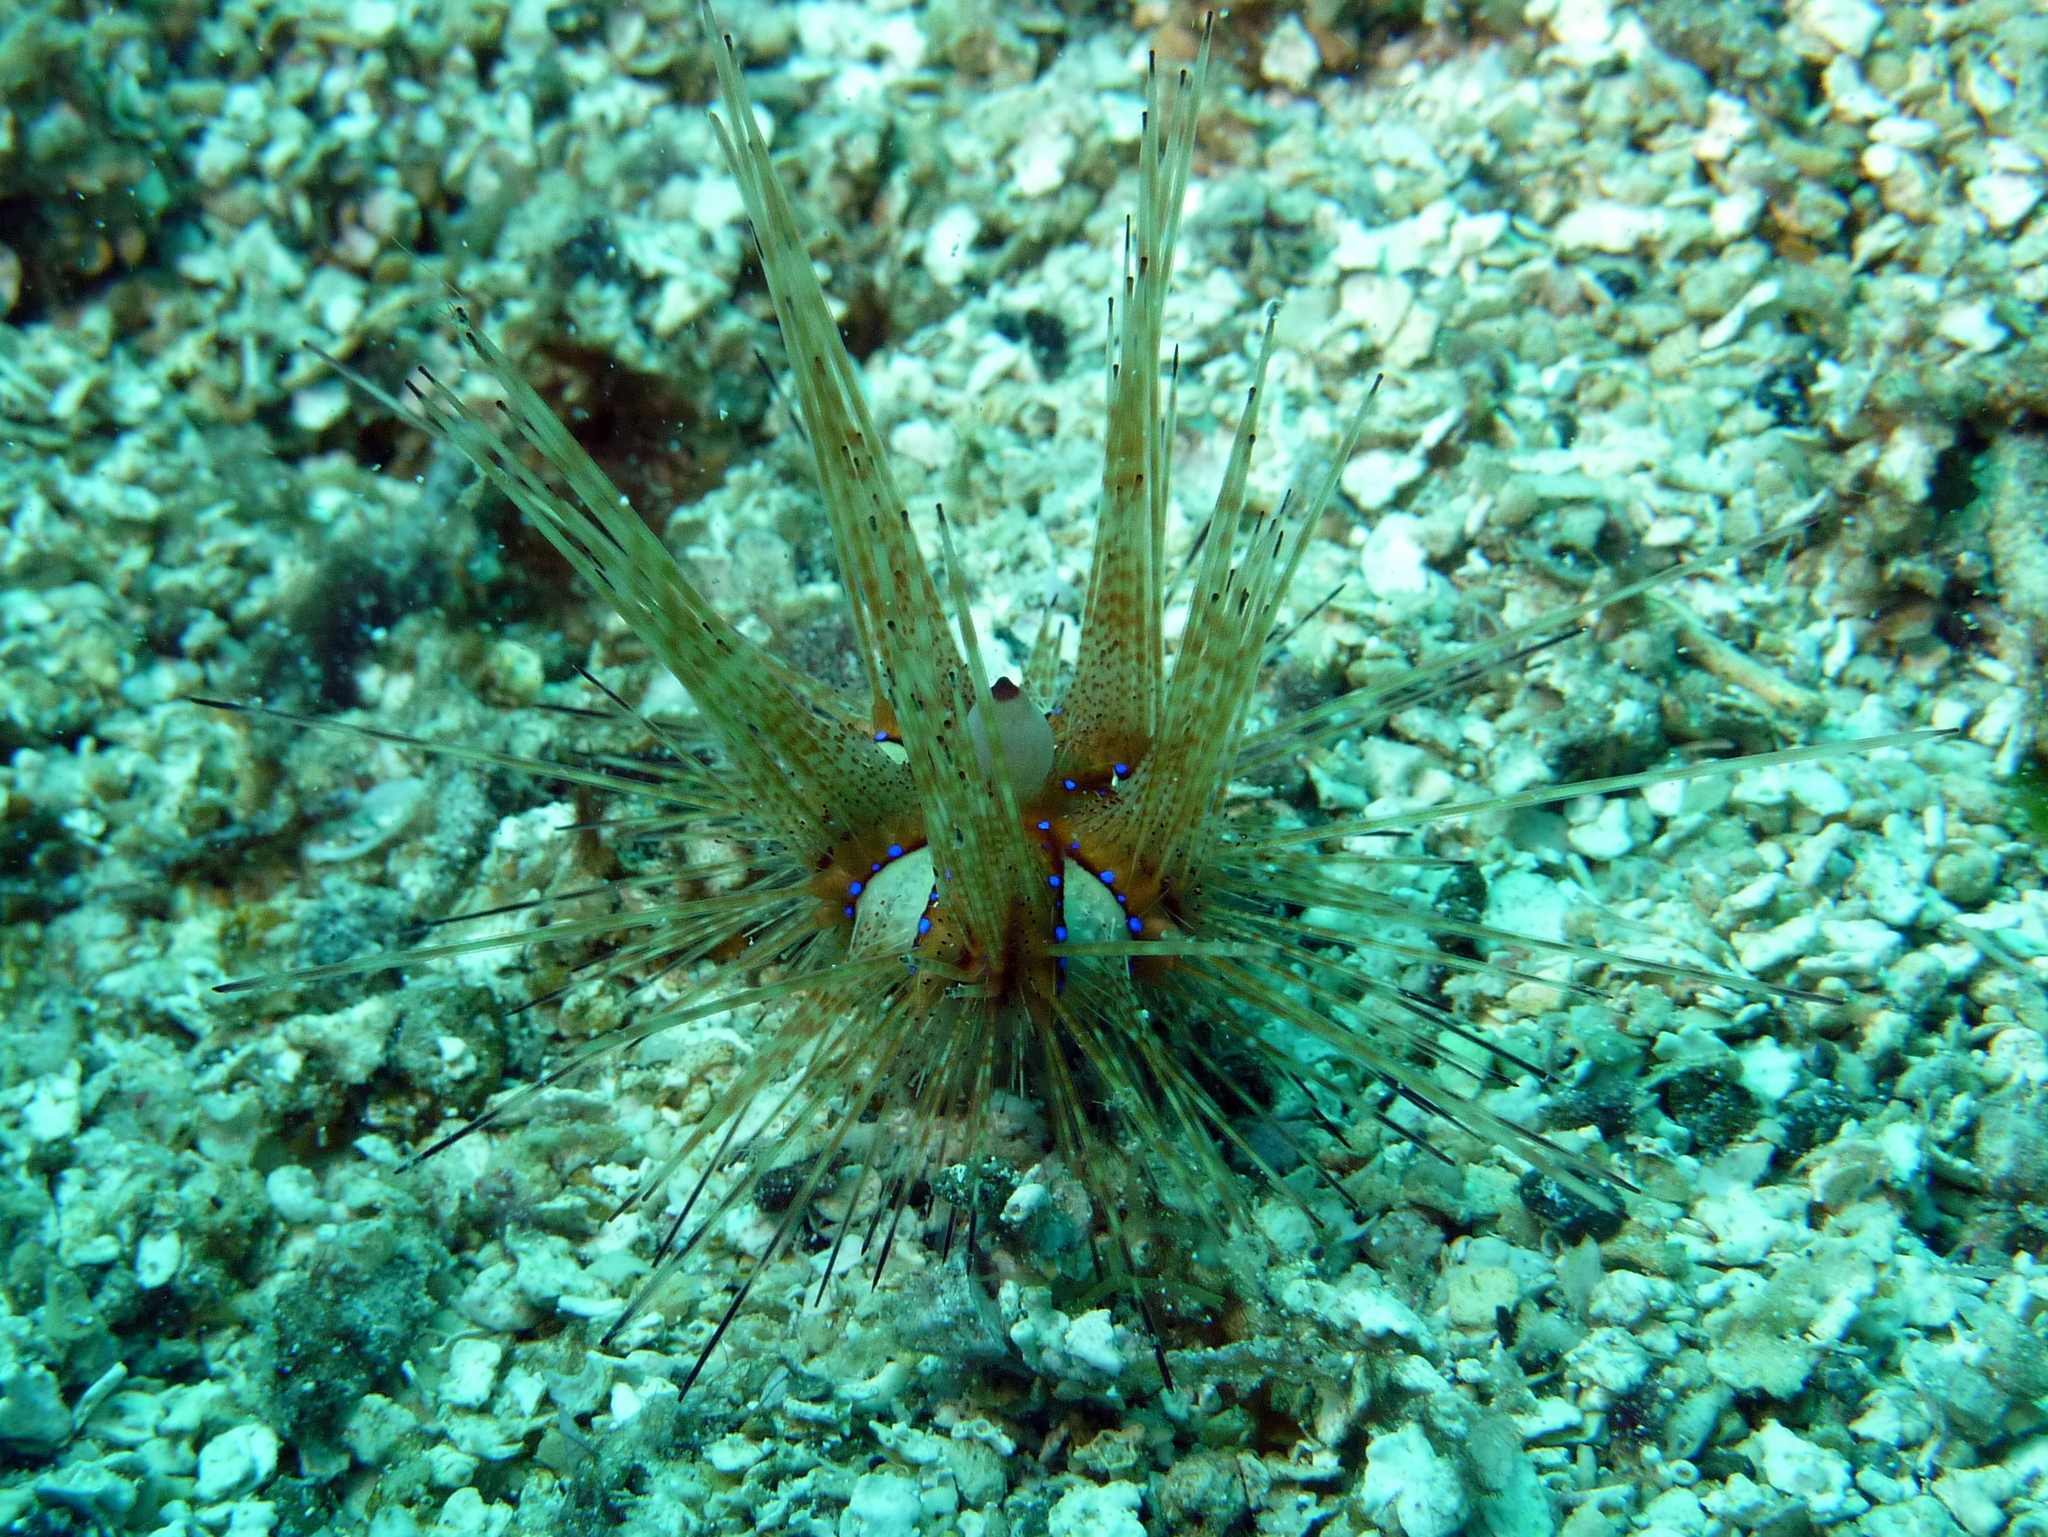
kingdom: Animalia
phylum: Echinodermata
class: Echinoidea
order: Diadematoida
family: Diadematidae
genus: Astropyga
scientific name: Astropyga radiata
